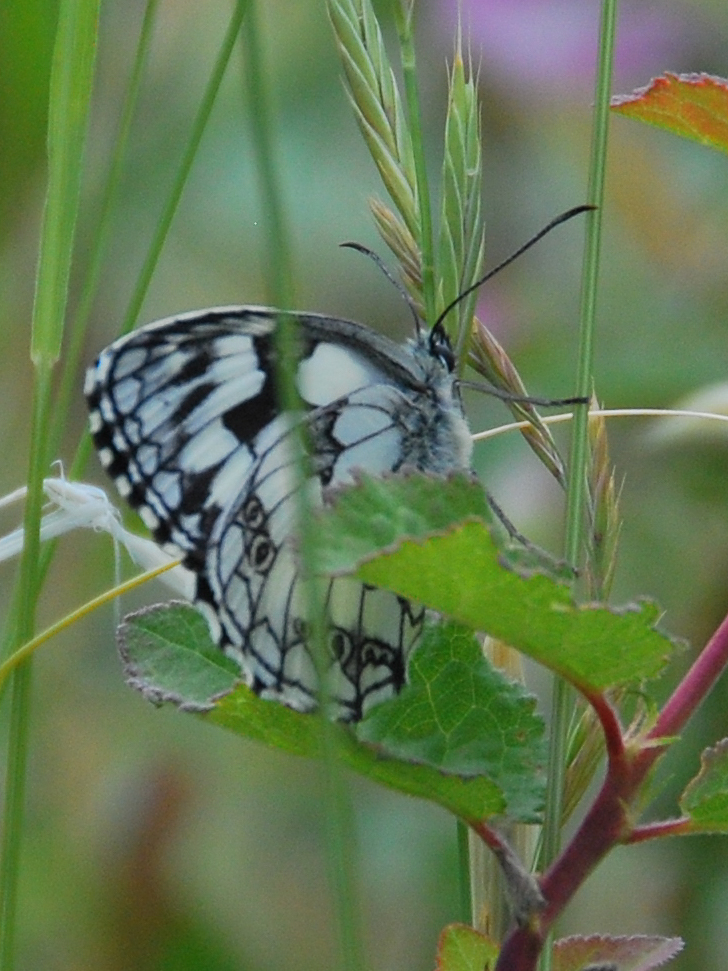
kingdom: Animalia
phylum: Arthropoda
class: Insecta
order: Lepidoptera
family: Nymphalidae
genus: Melanargia
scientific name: Melanargia galathea
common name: Marbled white
